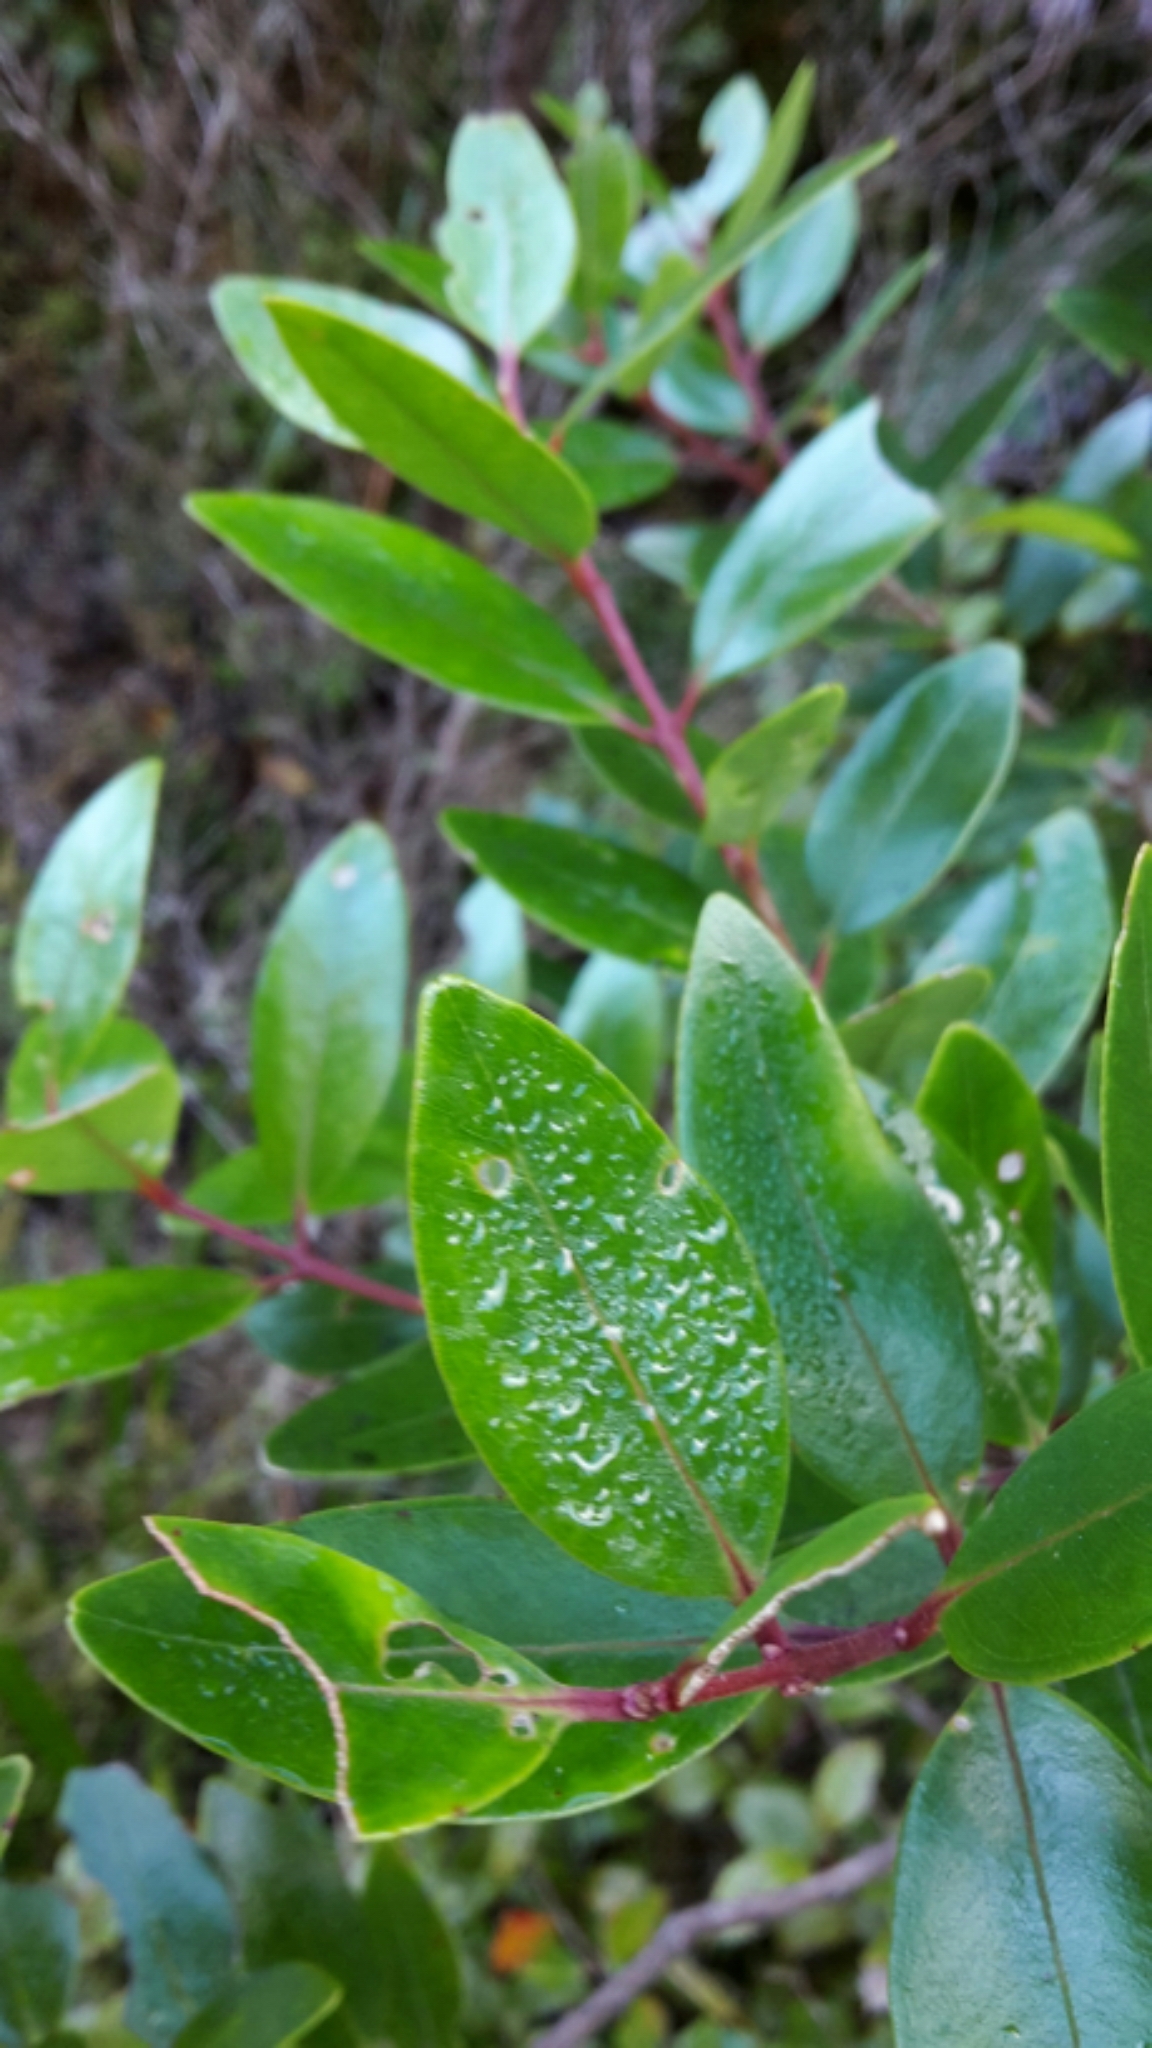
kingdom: Plantae
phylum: Tracheophyta
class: Magnoliopsida
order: Myrtales
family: Myrtaceae
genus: Metrosideros
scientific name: Metrosideros robusta
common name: Northern rata
